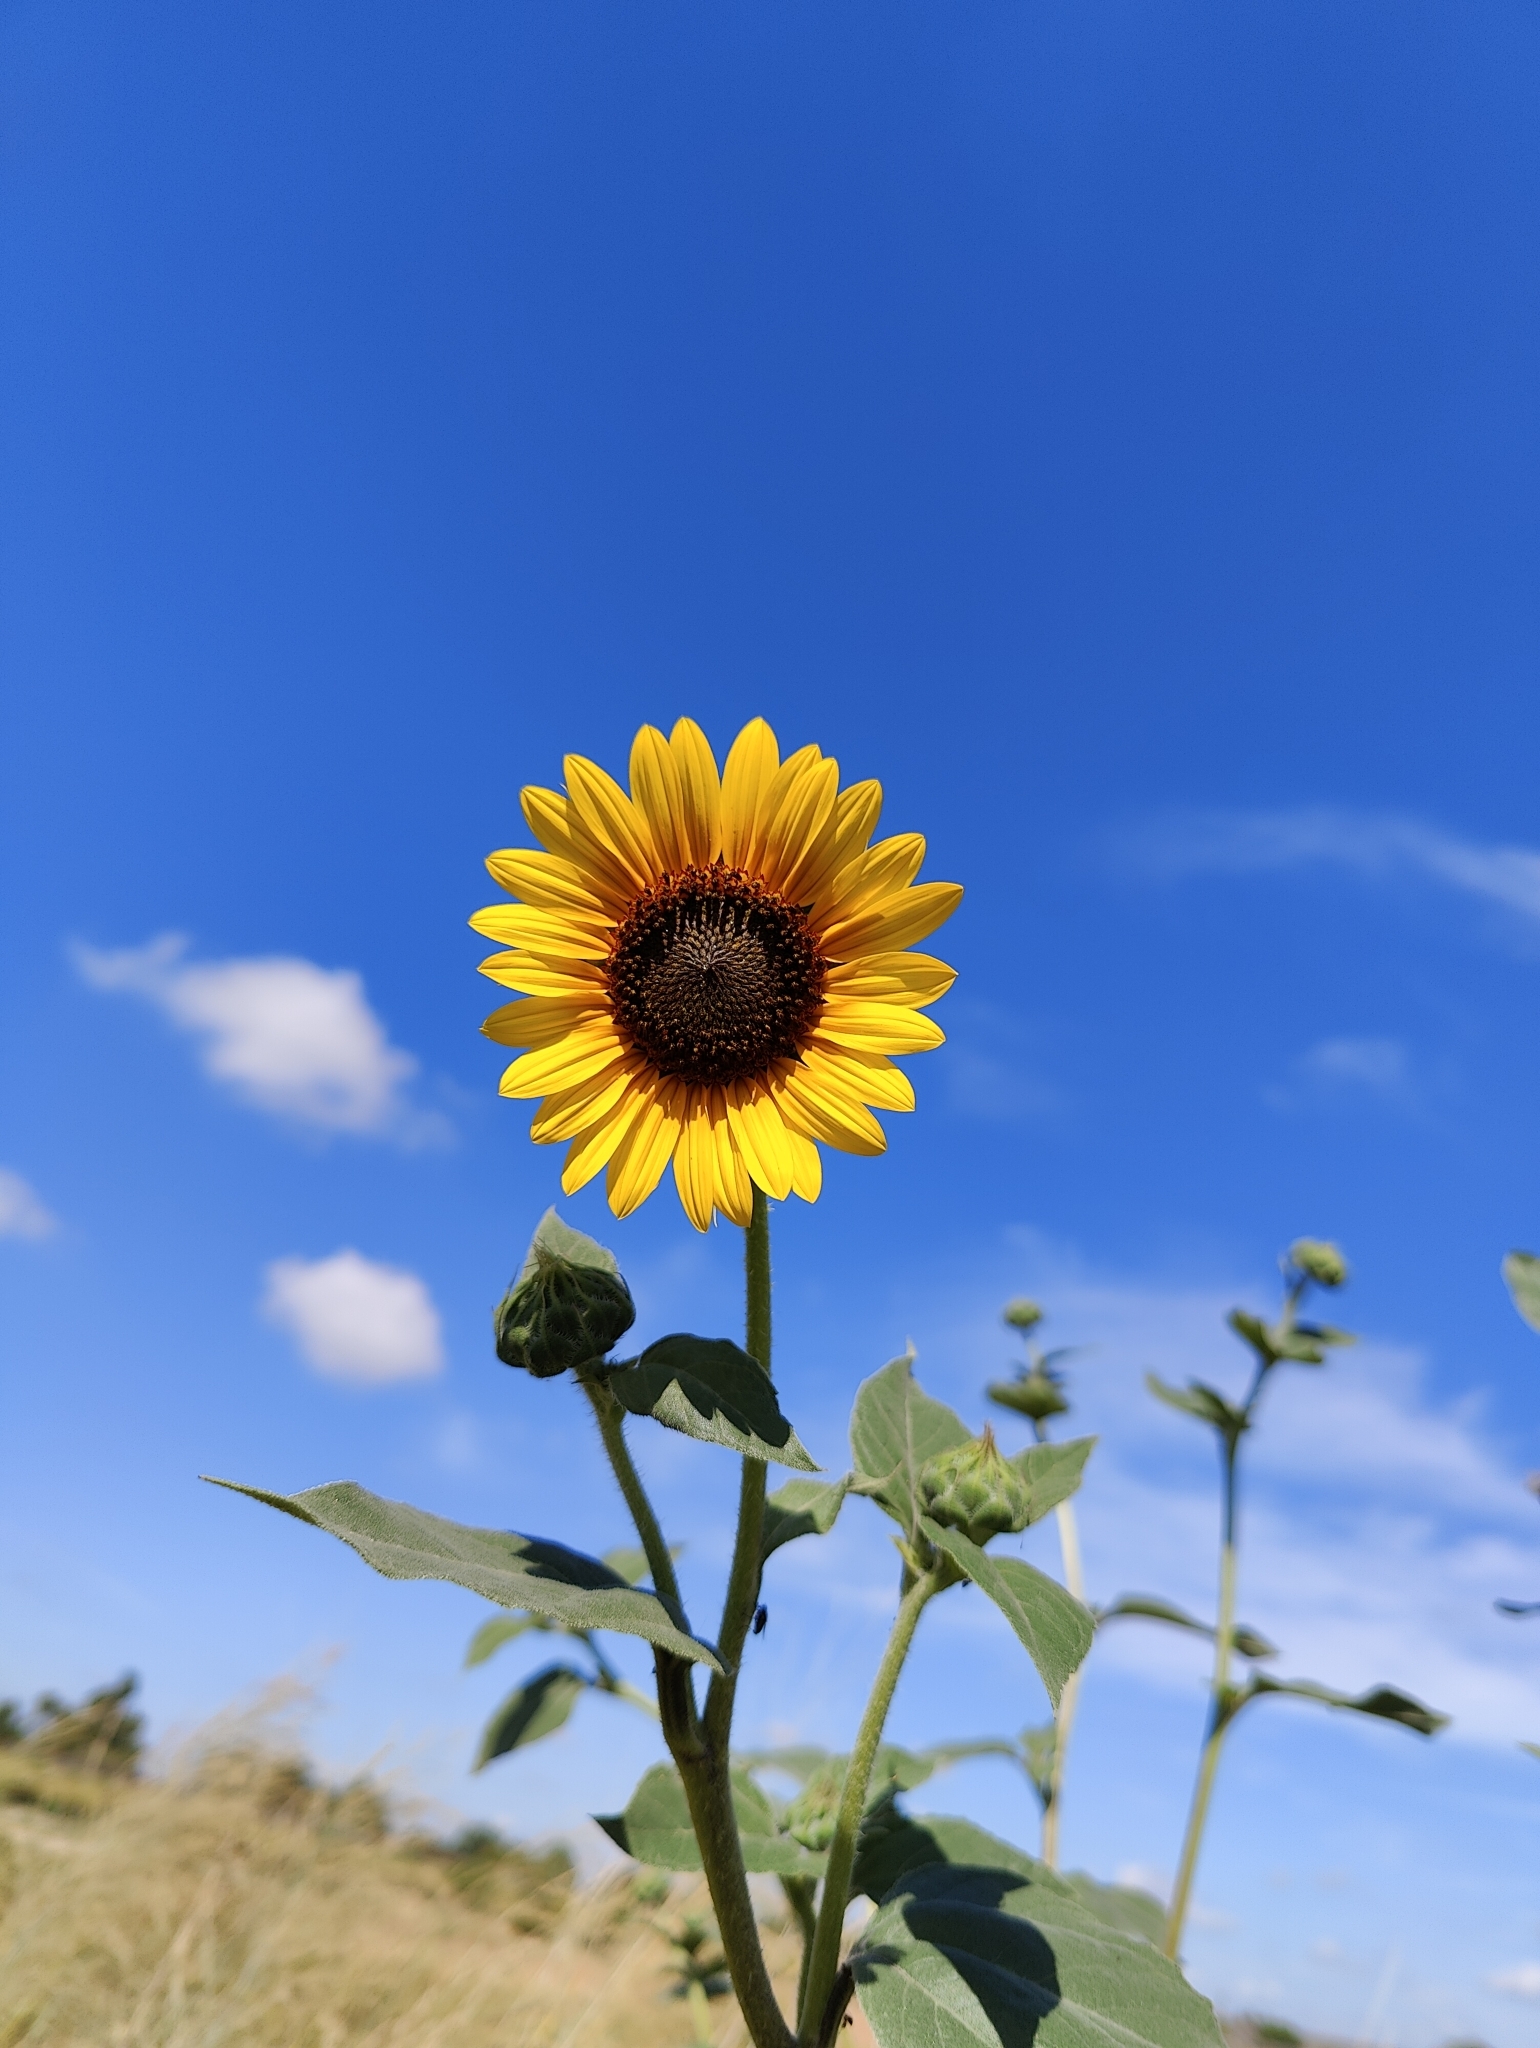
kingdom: Plantae
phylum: Tracheophyta
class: Magnoliopsida
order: Asterales
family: Asteraceae
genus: Helianthus
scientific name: Helianthus annuus
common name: Sunflower
